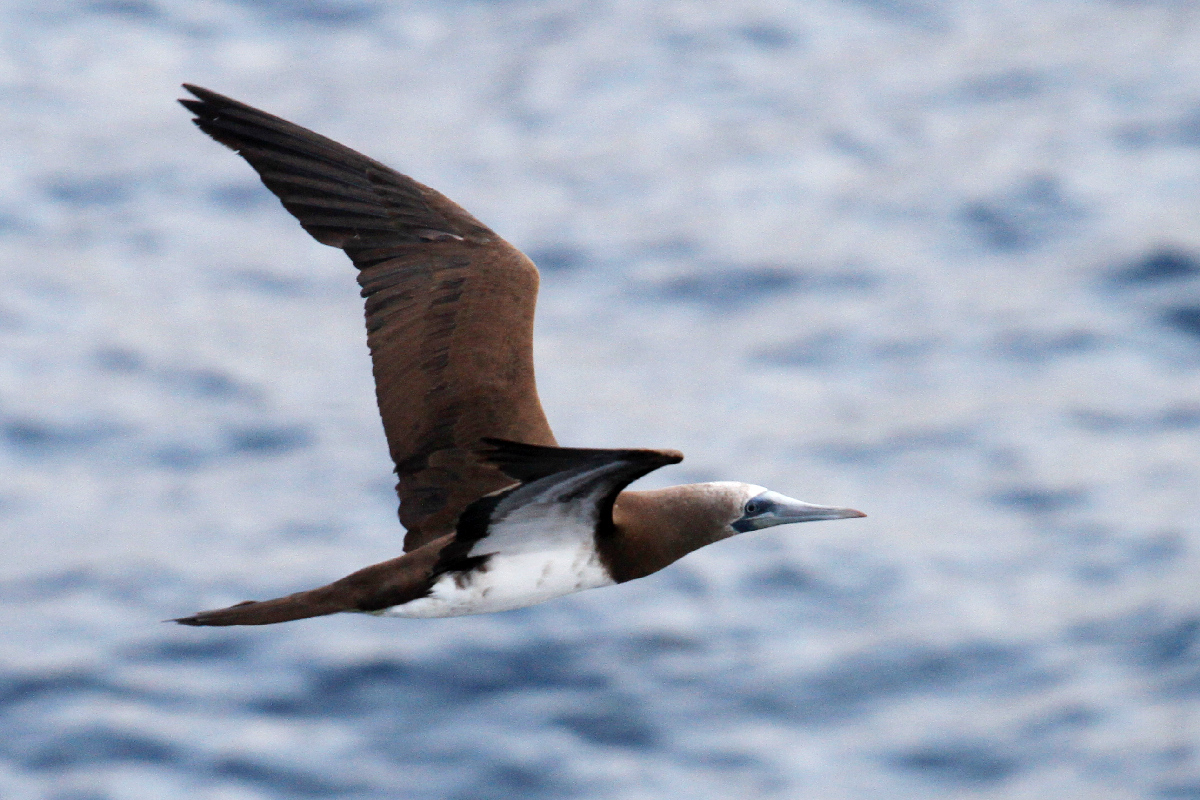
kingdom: Animalia
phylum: Chordata
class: Aves
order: Suliformes
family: Sulidae
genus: Sula
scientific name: Sula leucogaster
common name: Brown booby
